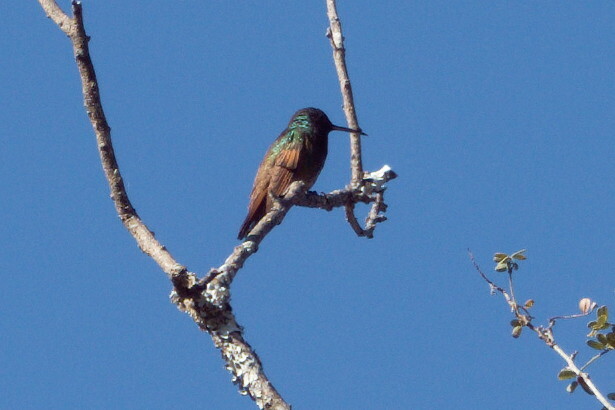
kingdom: Animalia
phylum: Chordata
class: Aves
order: Apodiformes
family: Trochilidae
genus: Saucerottia
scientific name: Saucerottia beryllina
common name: Berylline hummingbird
